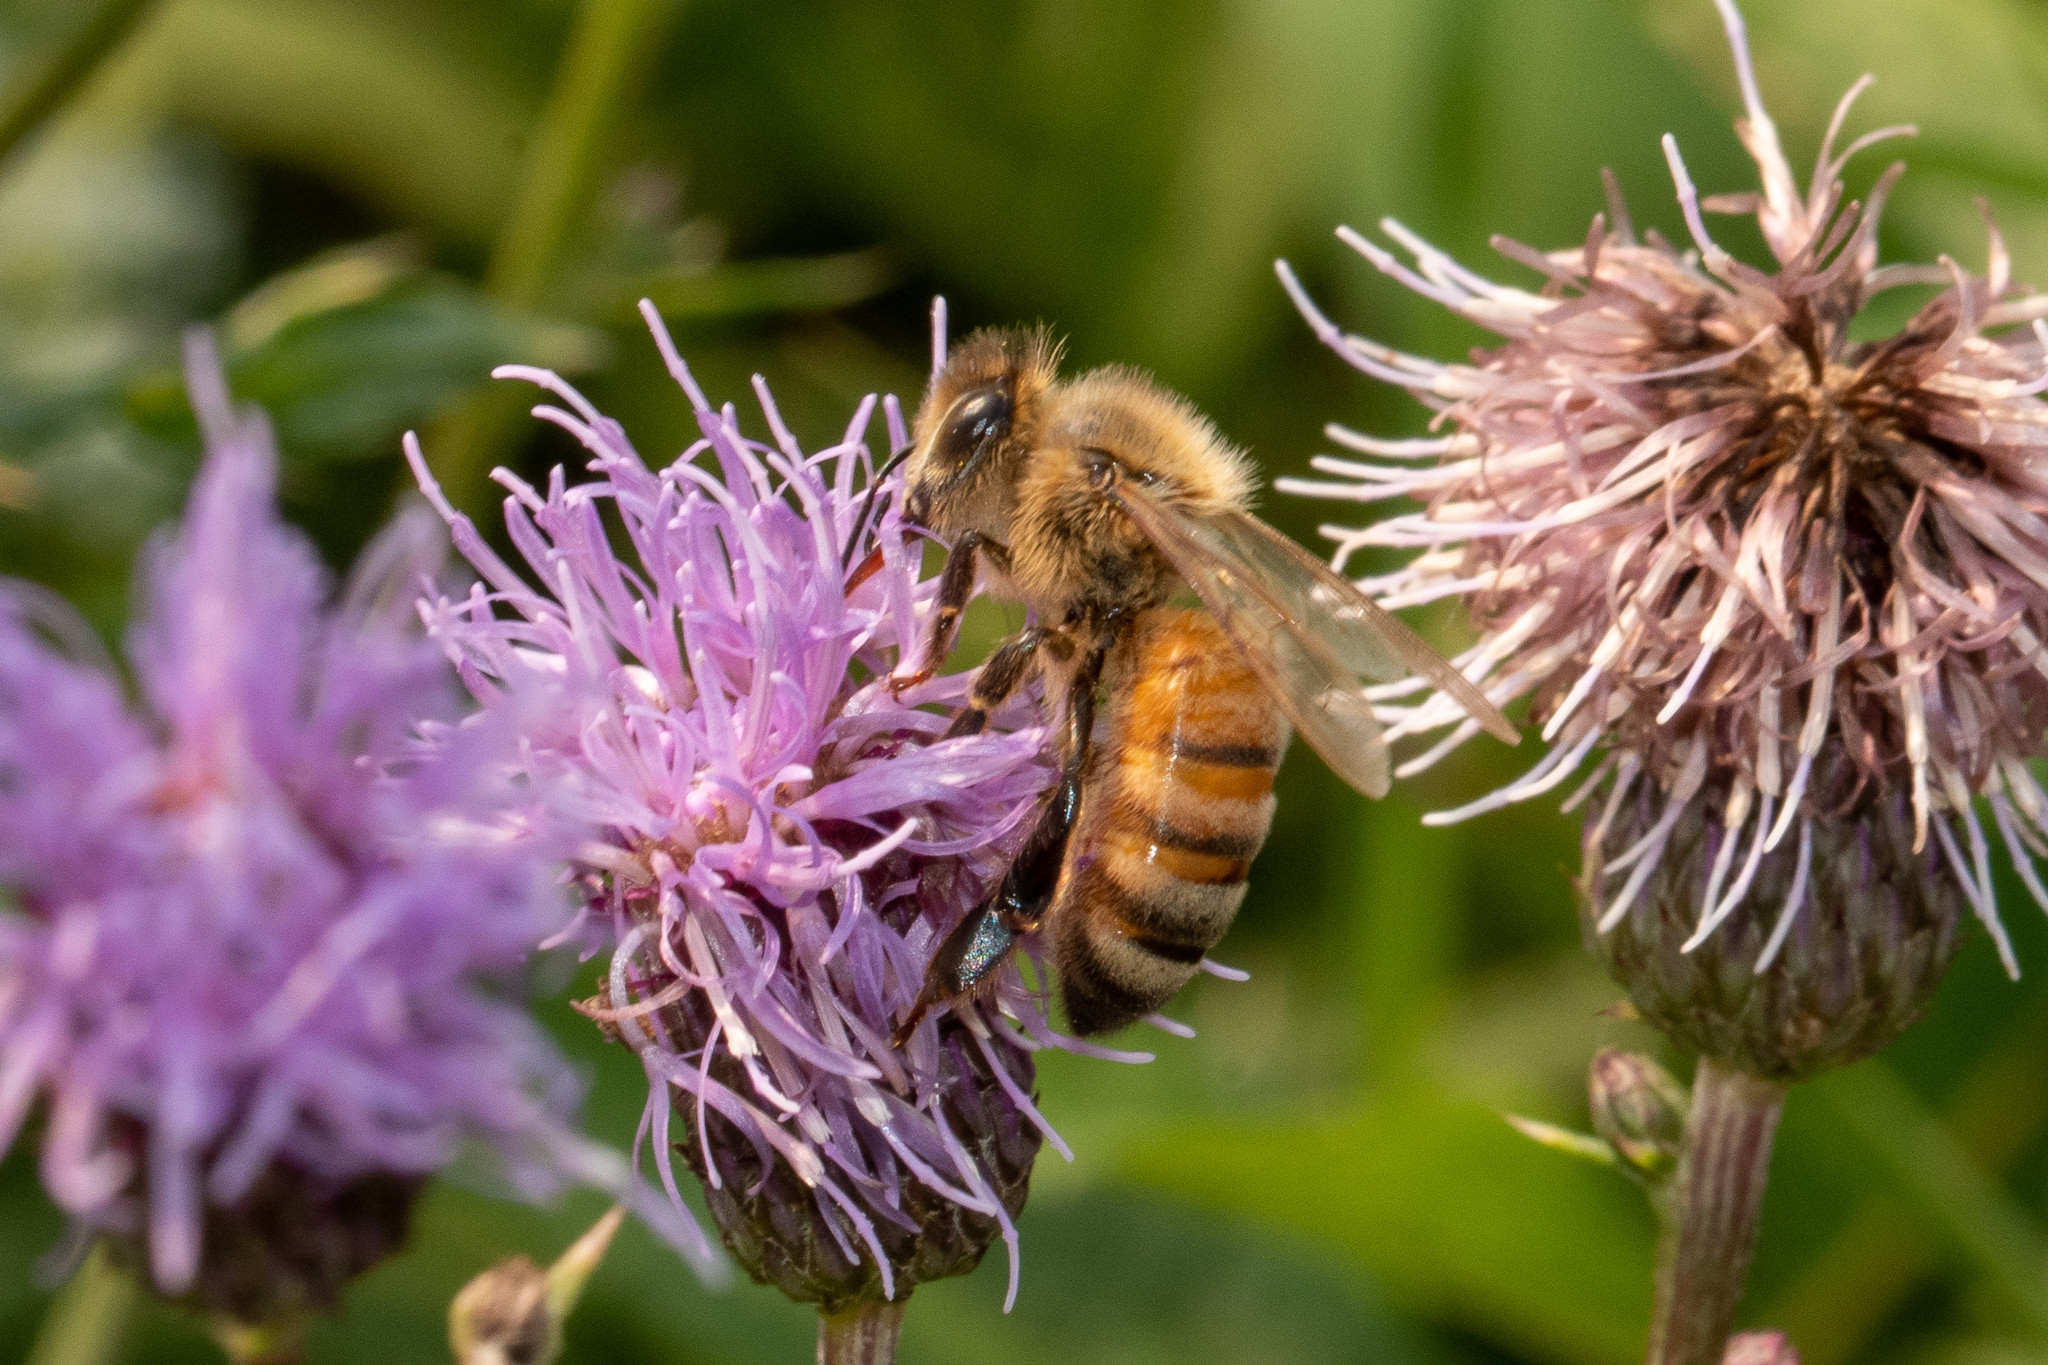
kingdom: Animalia
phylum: Arthropoda
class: Insecta
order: Hymenoptera
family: Apidae
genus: Apis
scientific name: Apis mellifera
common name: Honey bee
